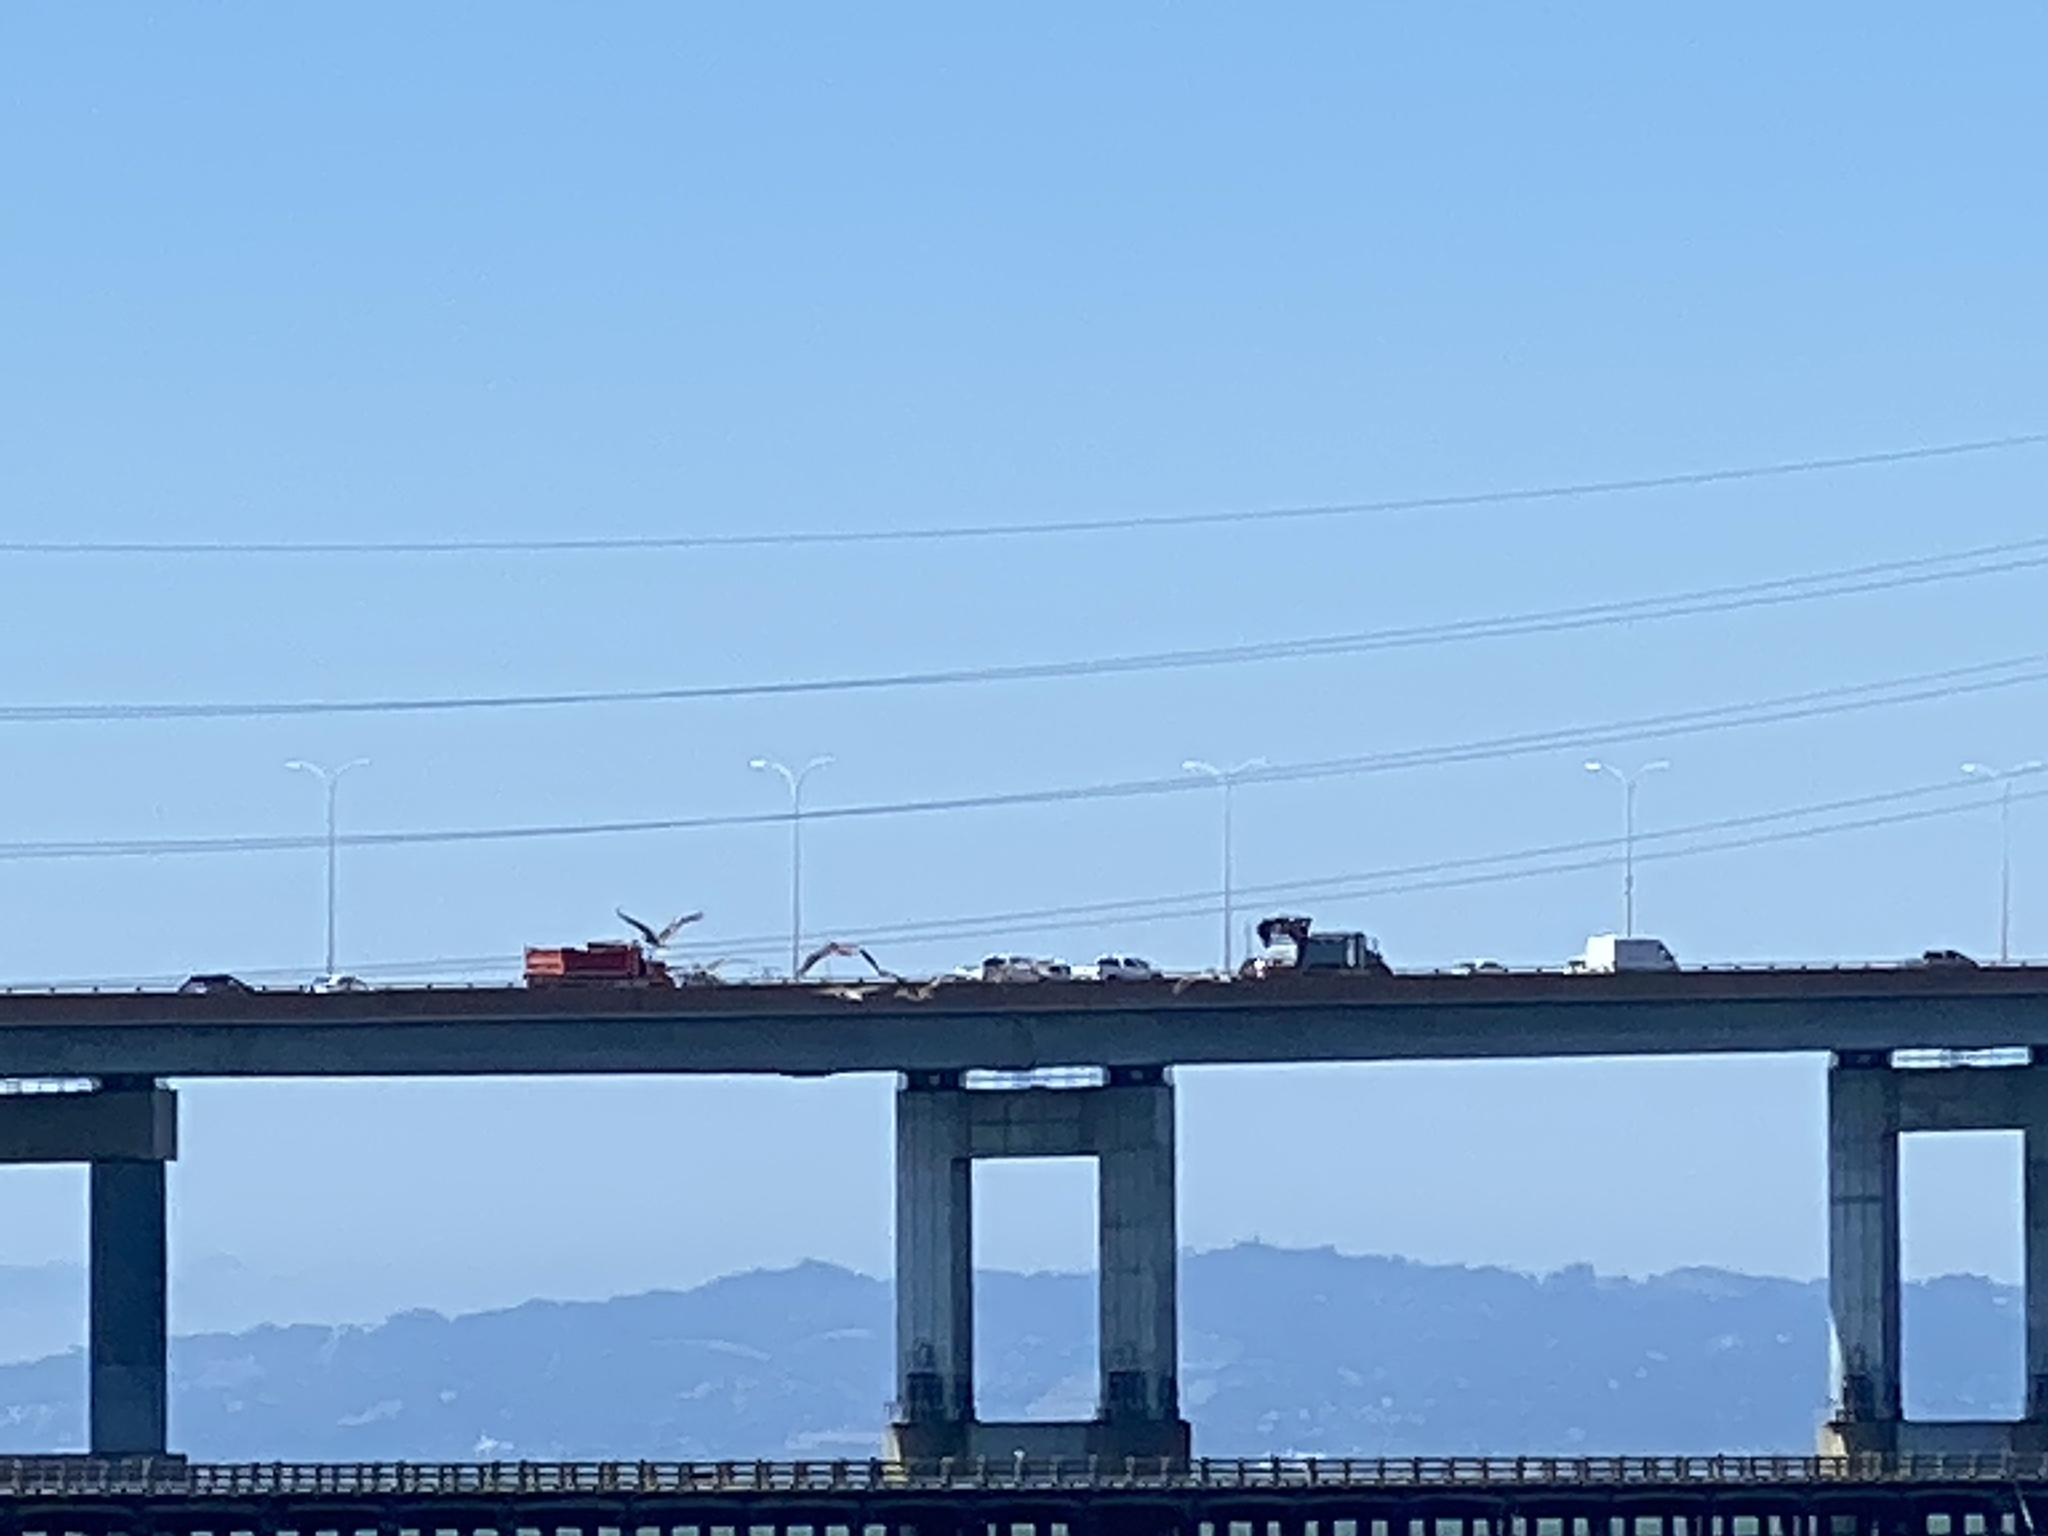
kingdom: Animalia
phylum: Chordata
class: Aves
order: Pelecaniformes
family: Pelecanidae
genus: Pelecanus
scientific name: Pelecanus occidentalis
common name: Brown pelican
